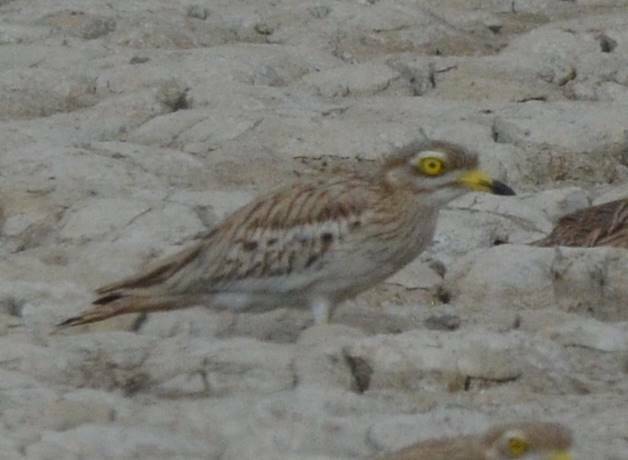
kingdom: Animalia
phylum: Chordata
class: Aves
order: Charadriiformes
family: Burhinidae
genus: Burhinus
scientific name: Burhinus oedicnemus
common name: Eurasian stone-curlew
